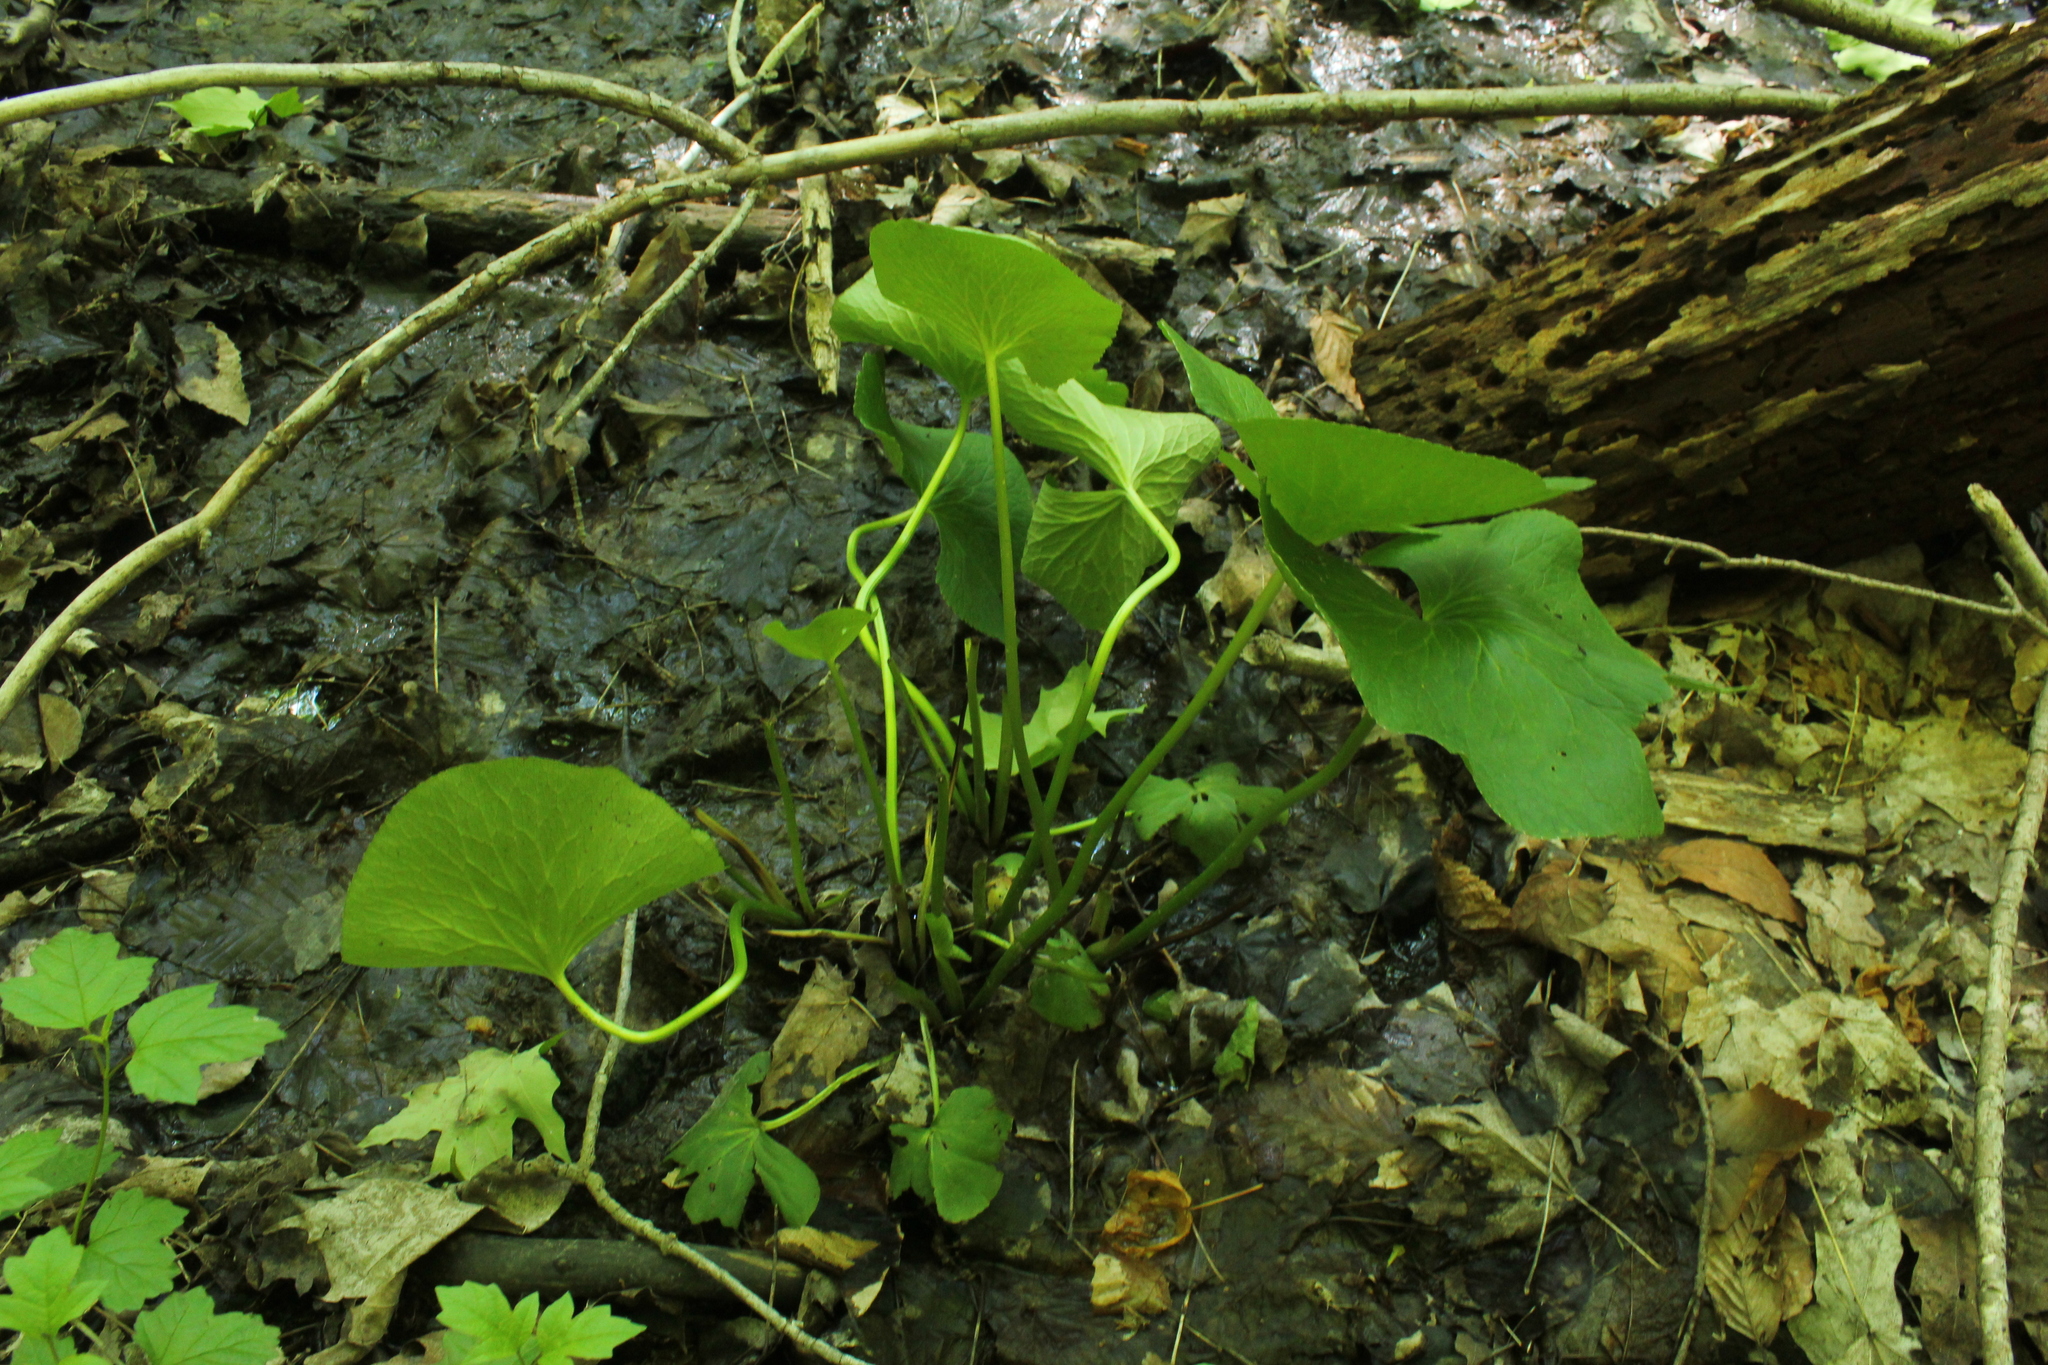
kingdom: Plantae
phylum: Tracheophyta
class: Magnoliopsida
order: Ranunculales
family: Ranunculaceae
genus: Caltha
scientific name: Caltha palustris
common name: Marsh marigold
